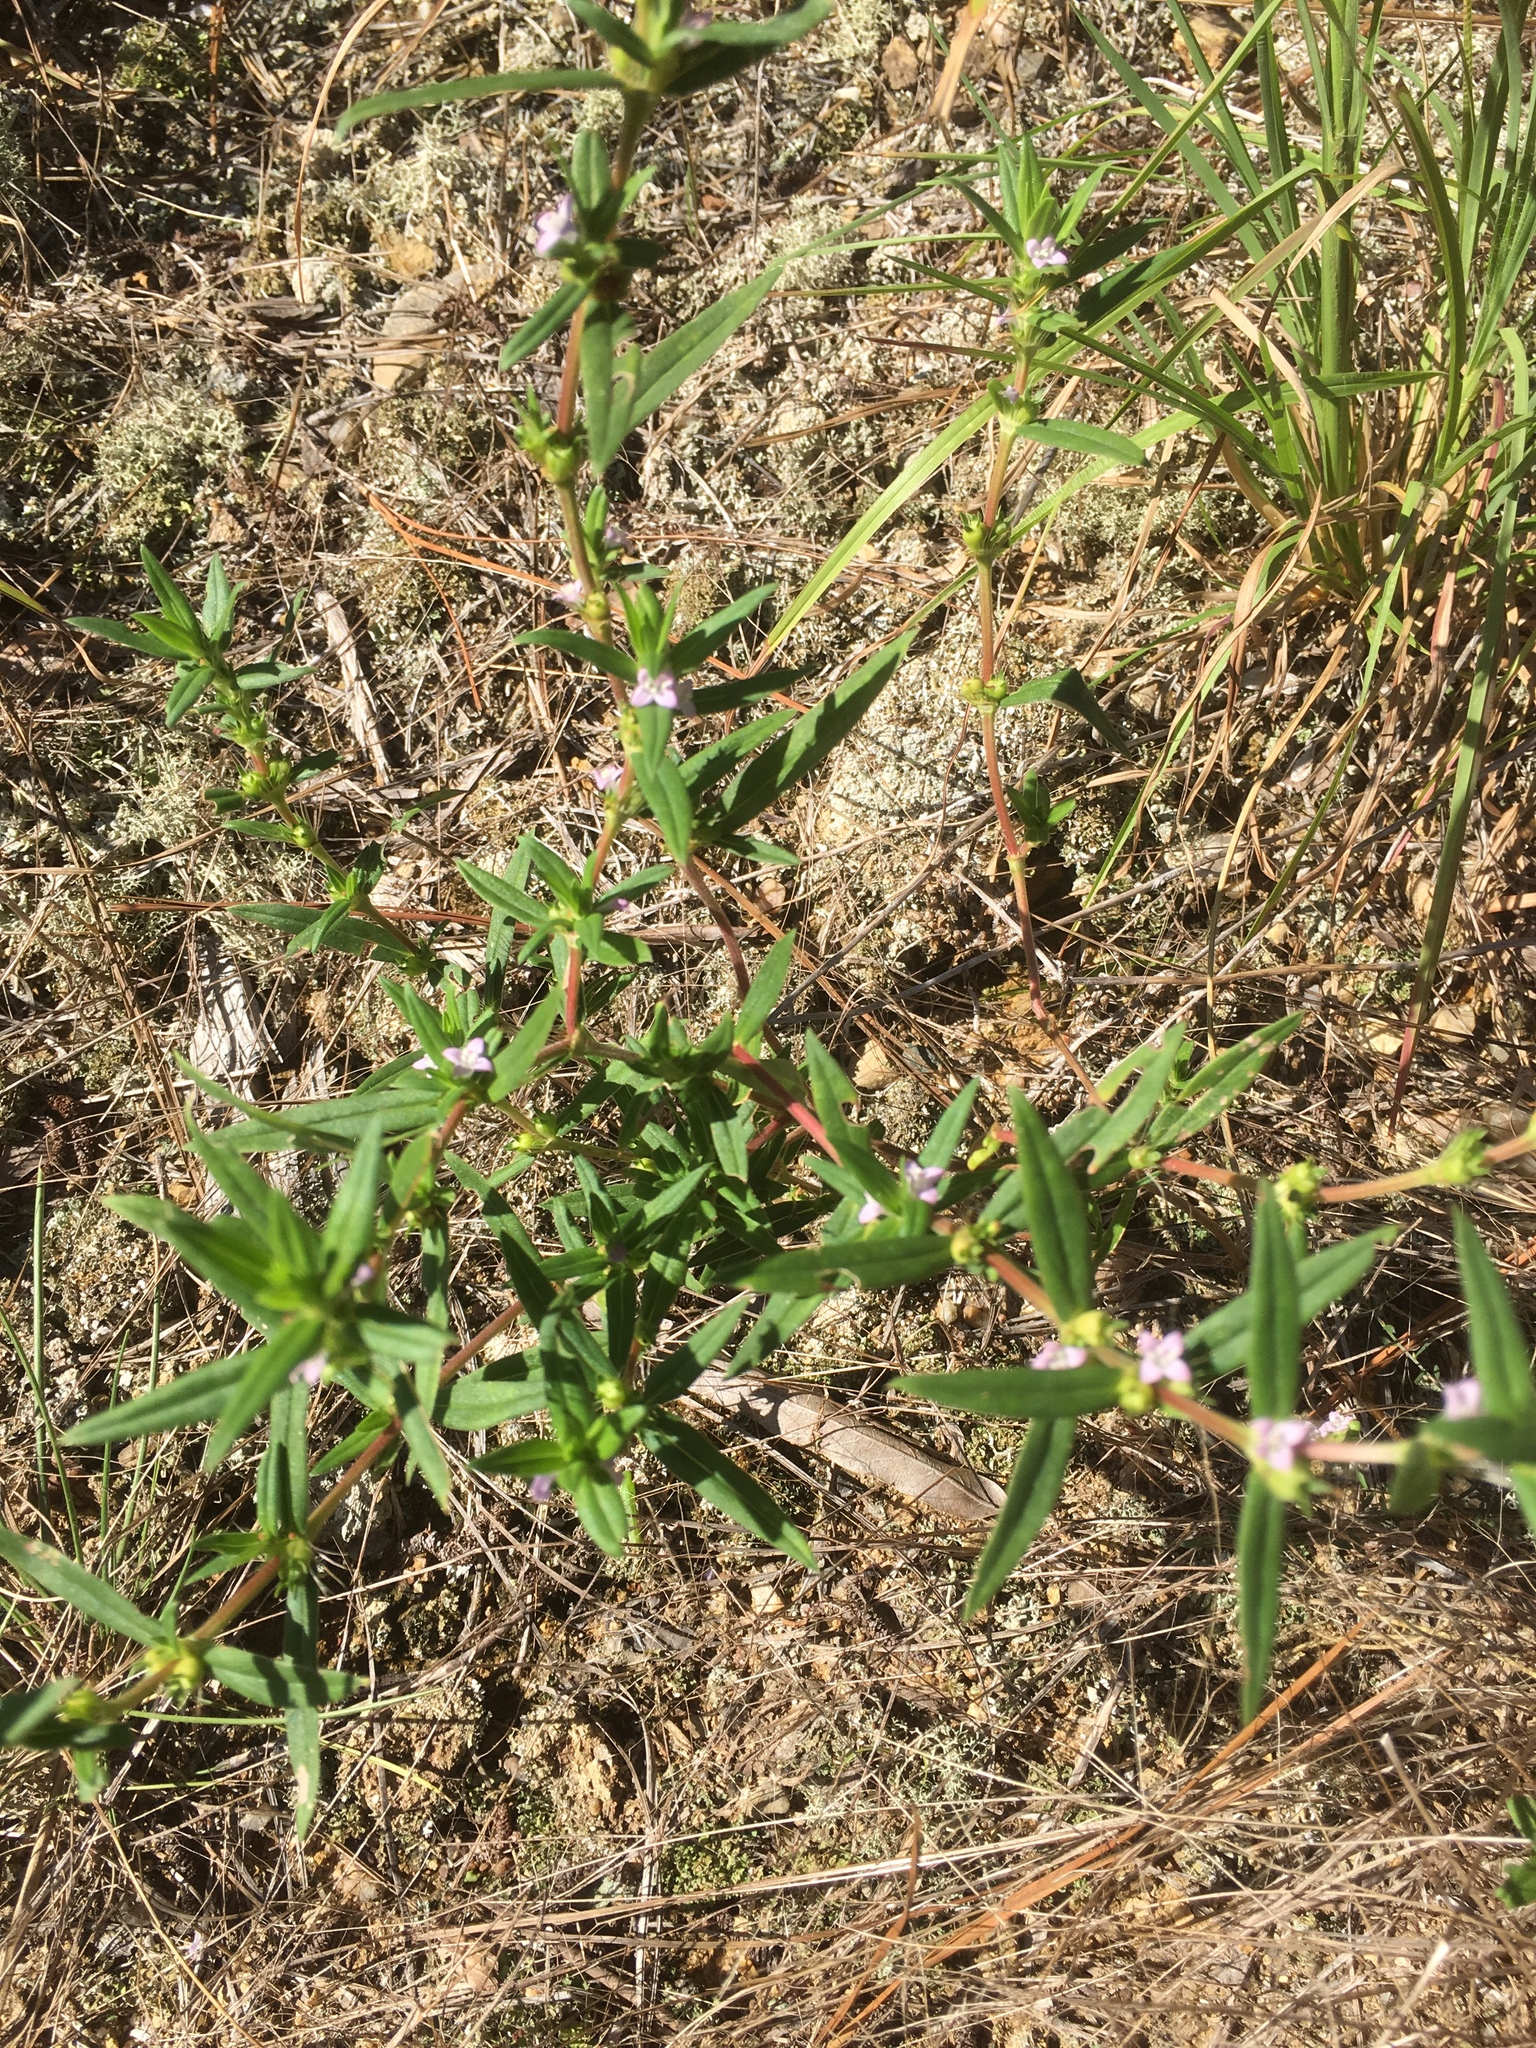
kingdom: Plantae
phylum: Tracheophyta
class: Magnoliopsida
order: Gentianales
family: Rubiaceae
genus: Hexasepalum
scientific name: Hexasepalum teres
